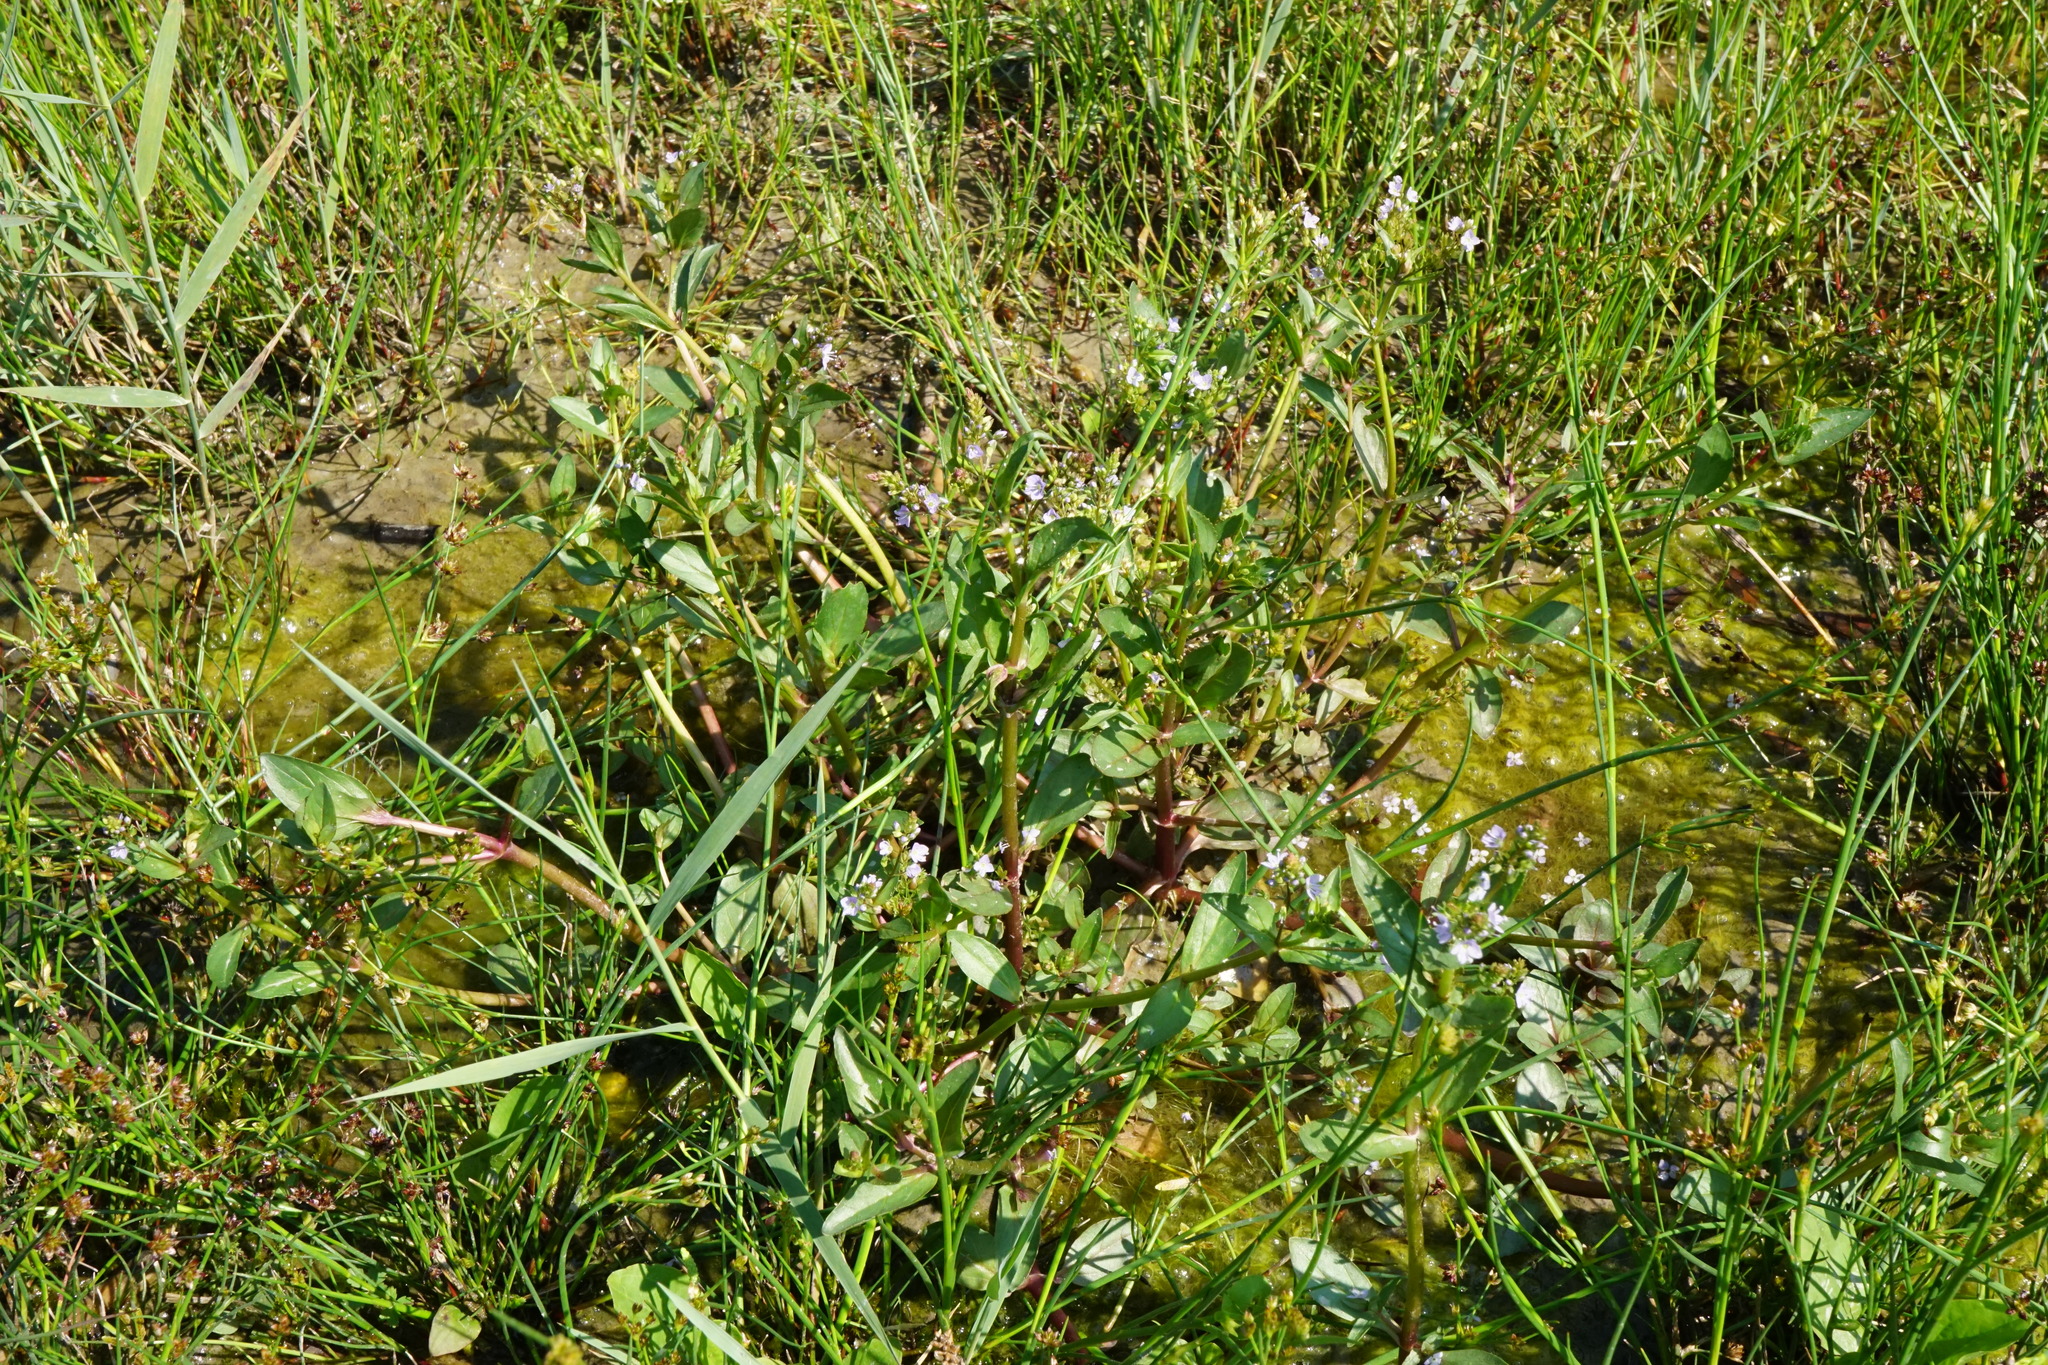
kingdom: Plantae
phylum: Tracheophyta
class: Magnoliopsida
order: Lamiales
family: Plantaginaceae
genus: Veronica
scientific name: Veronica anagallis-aquatica
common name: Water speedwell
